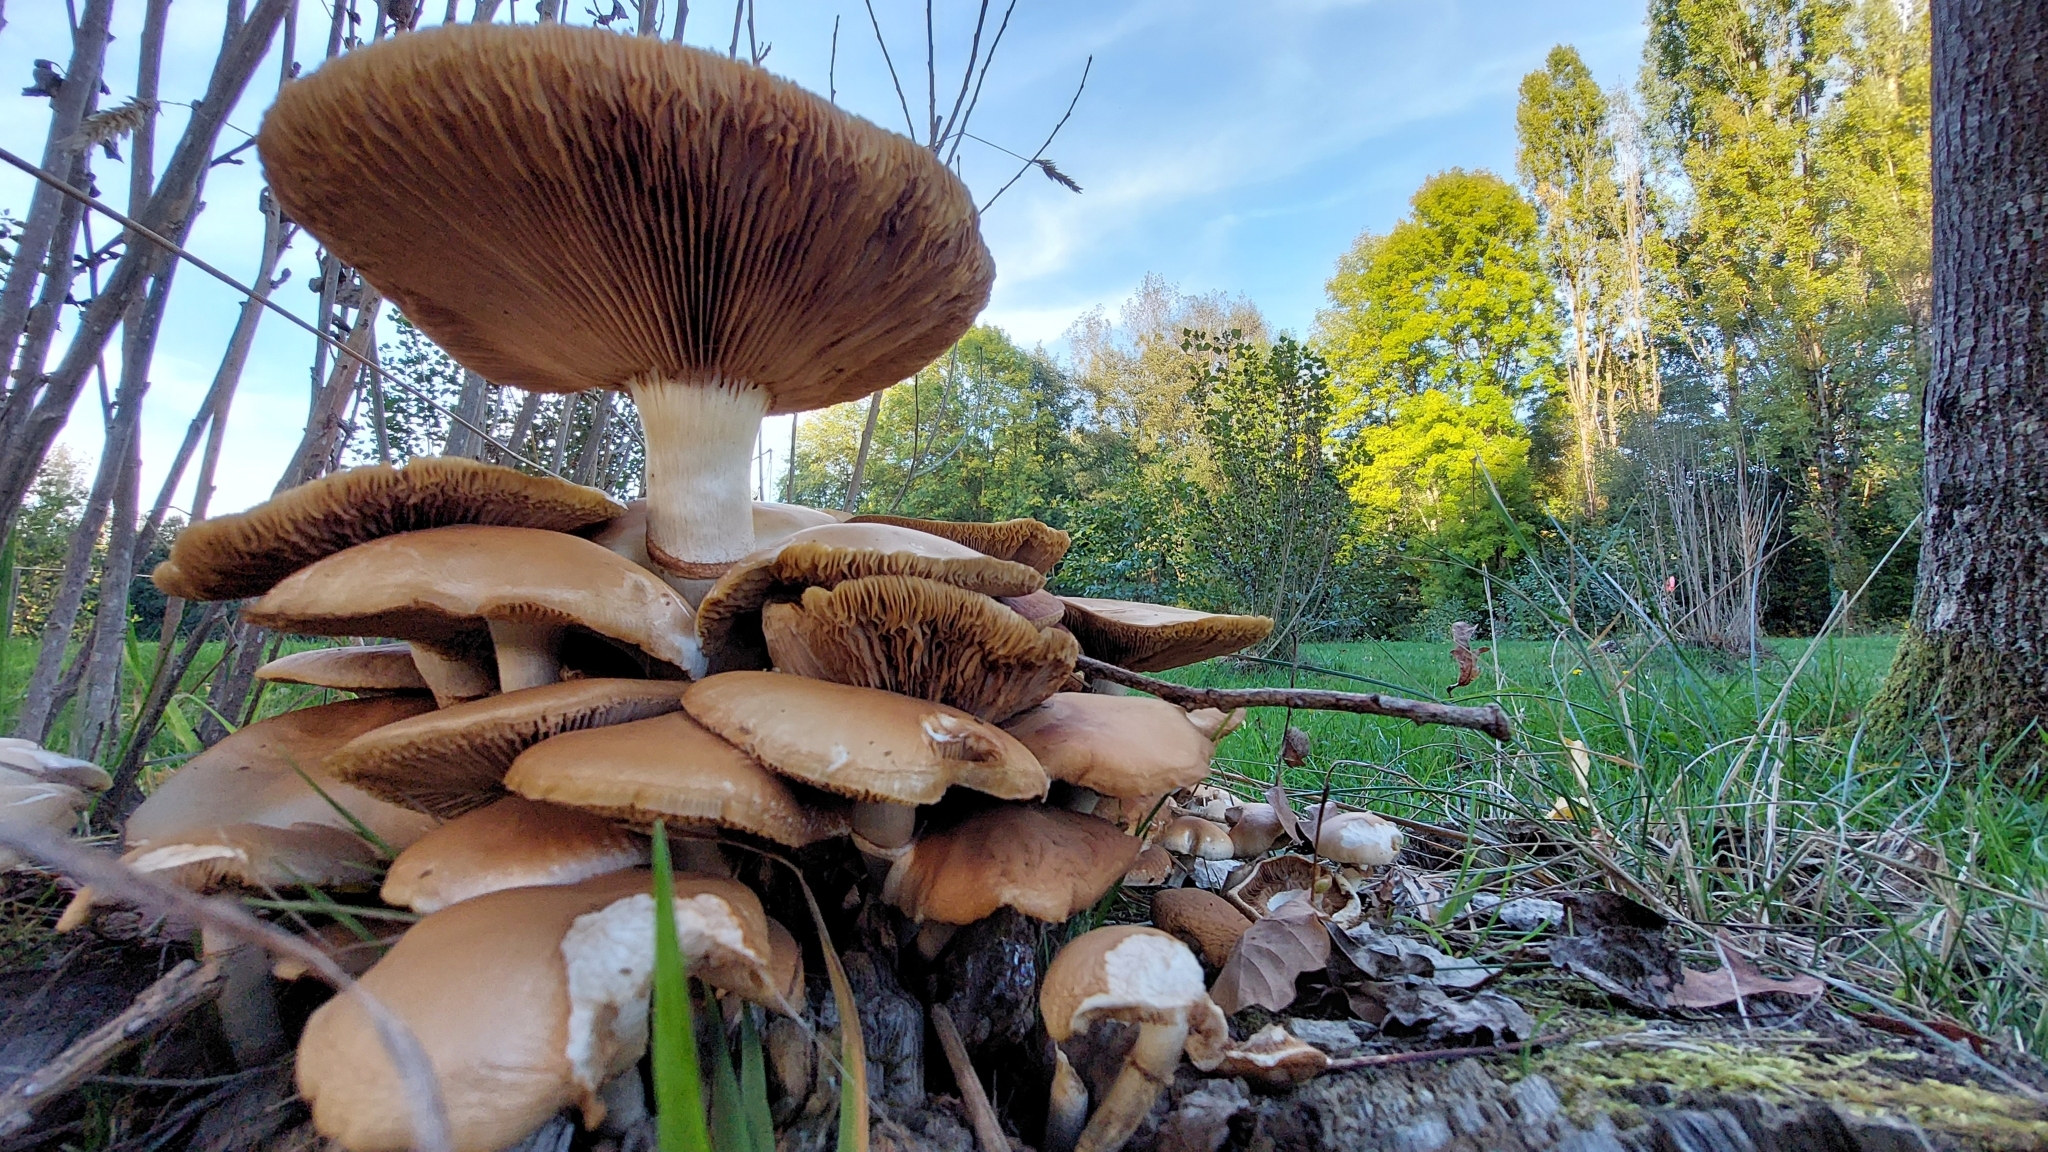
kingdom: Fungi
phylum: Basidiomycota
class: Agaricomycetes
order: Agaricales
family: Tubariaceae
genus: Cyclocybe
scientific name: Cyclocybe cylindracea
